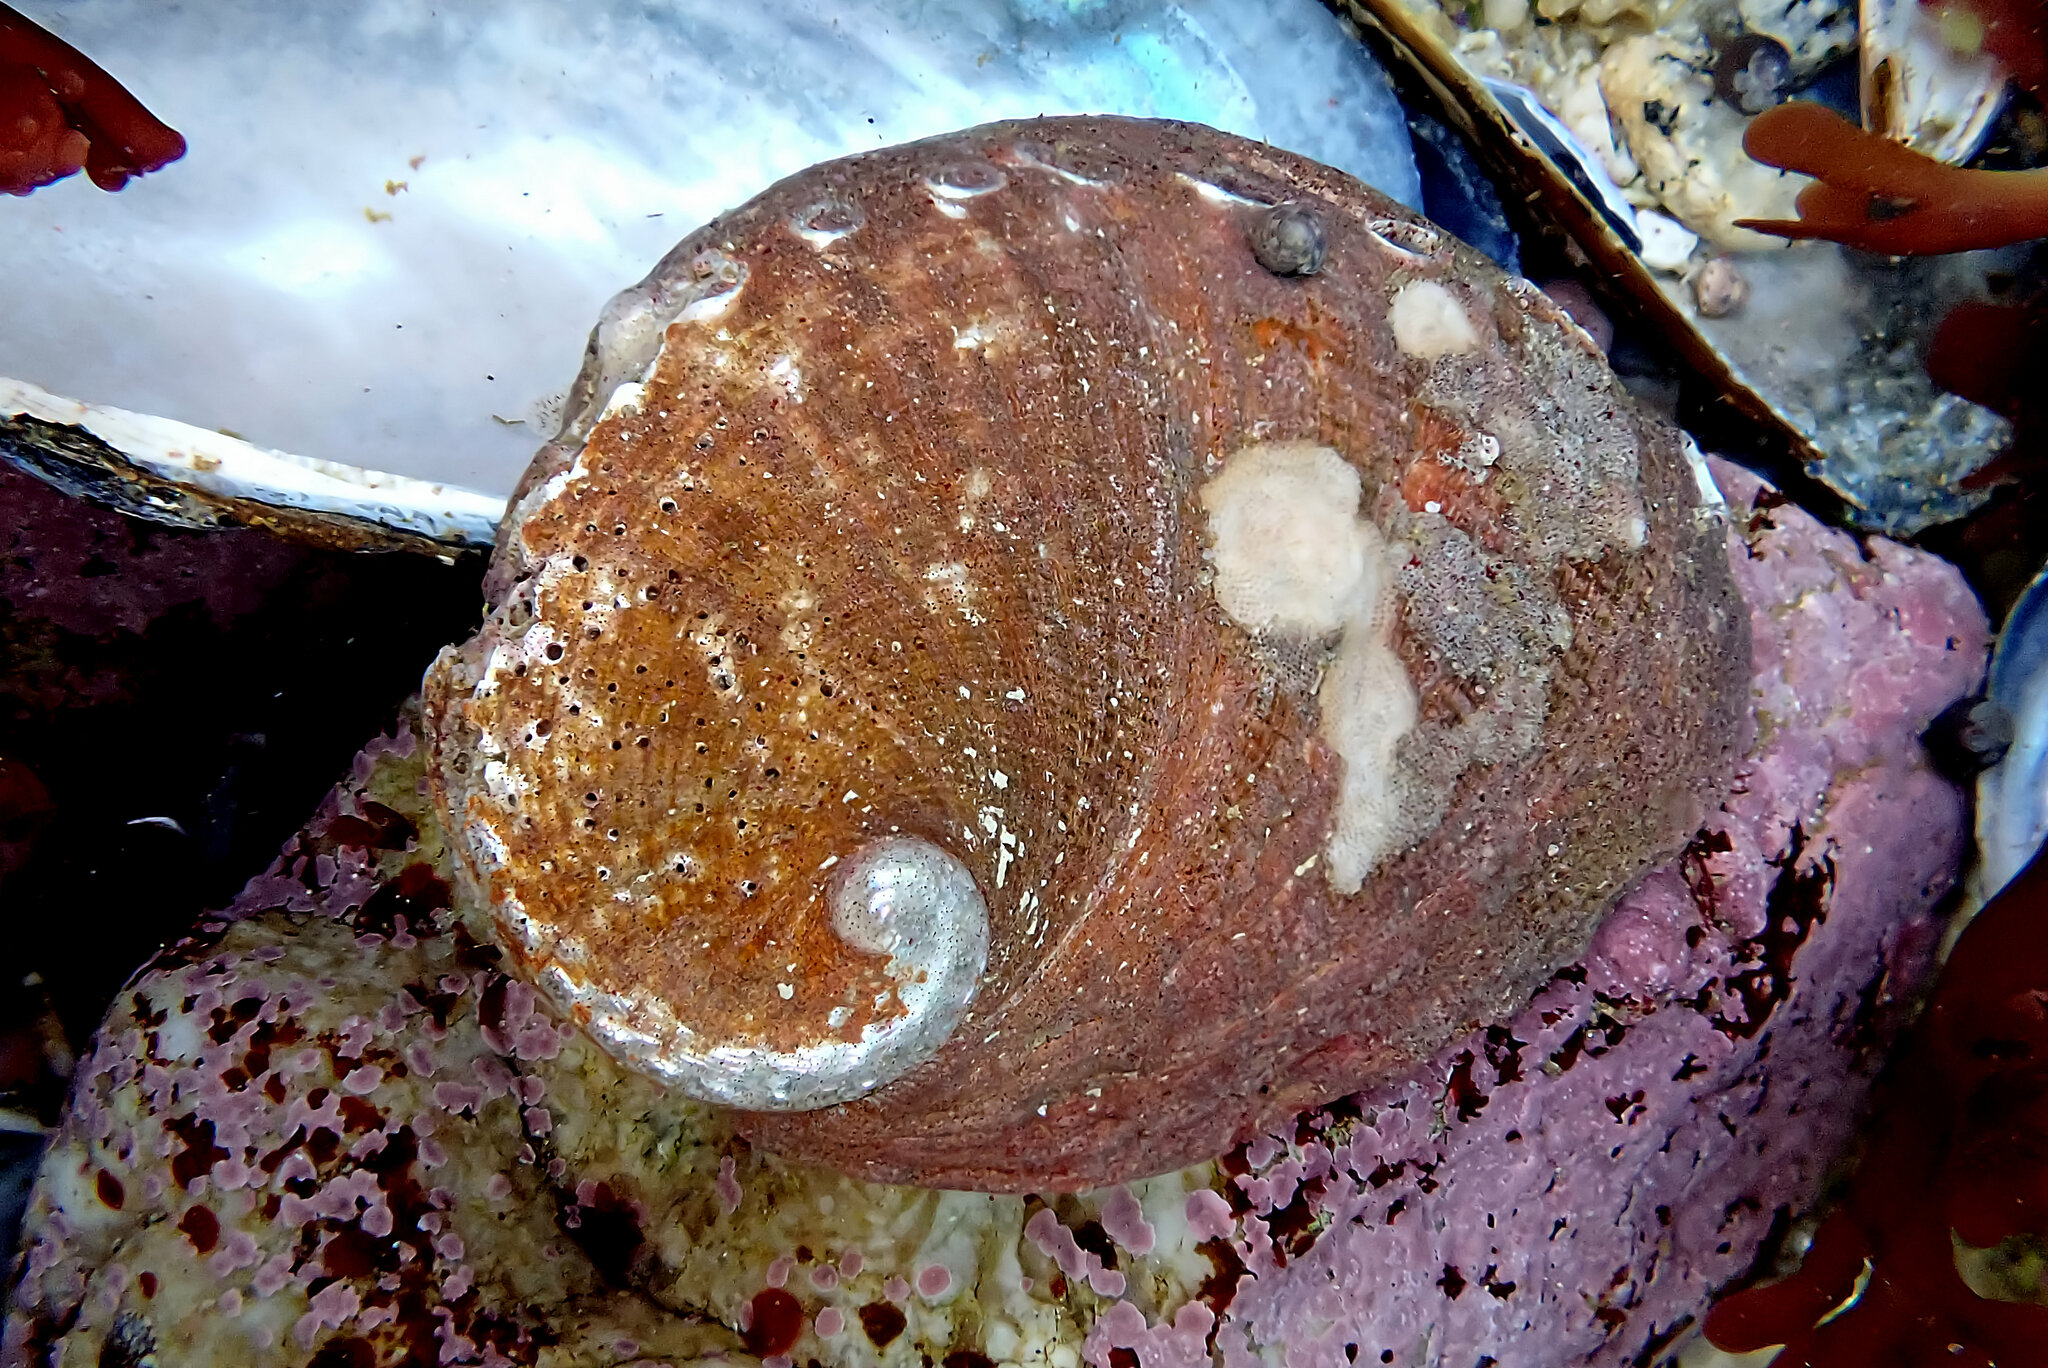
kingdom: Animalia
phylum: Mollusca
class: Gastropoda
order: Lepetellida
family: Haliotidae
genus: Haliotis
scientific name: Haliotis rufescens
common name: Red abalone
